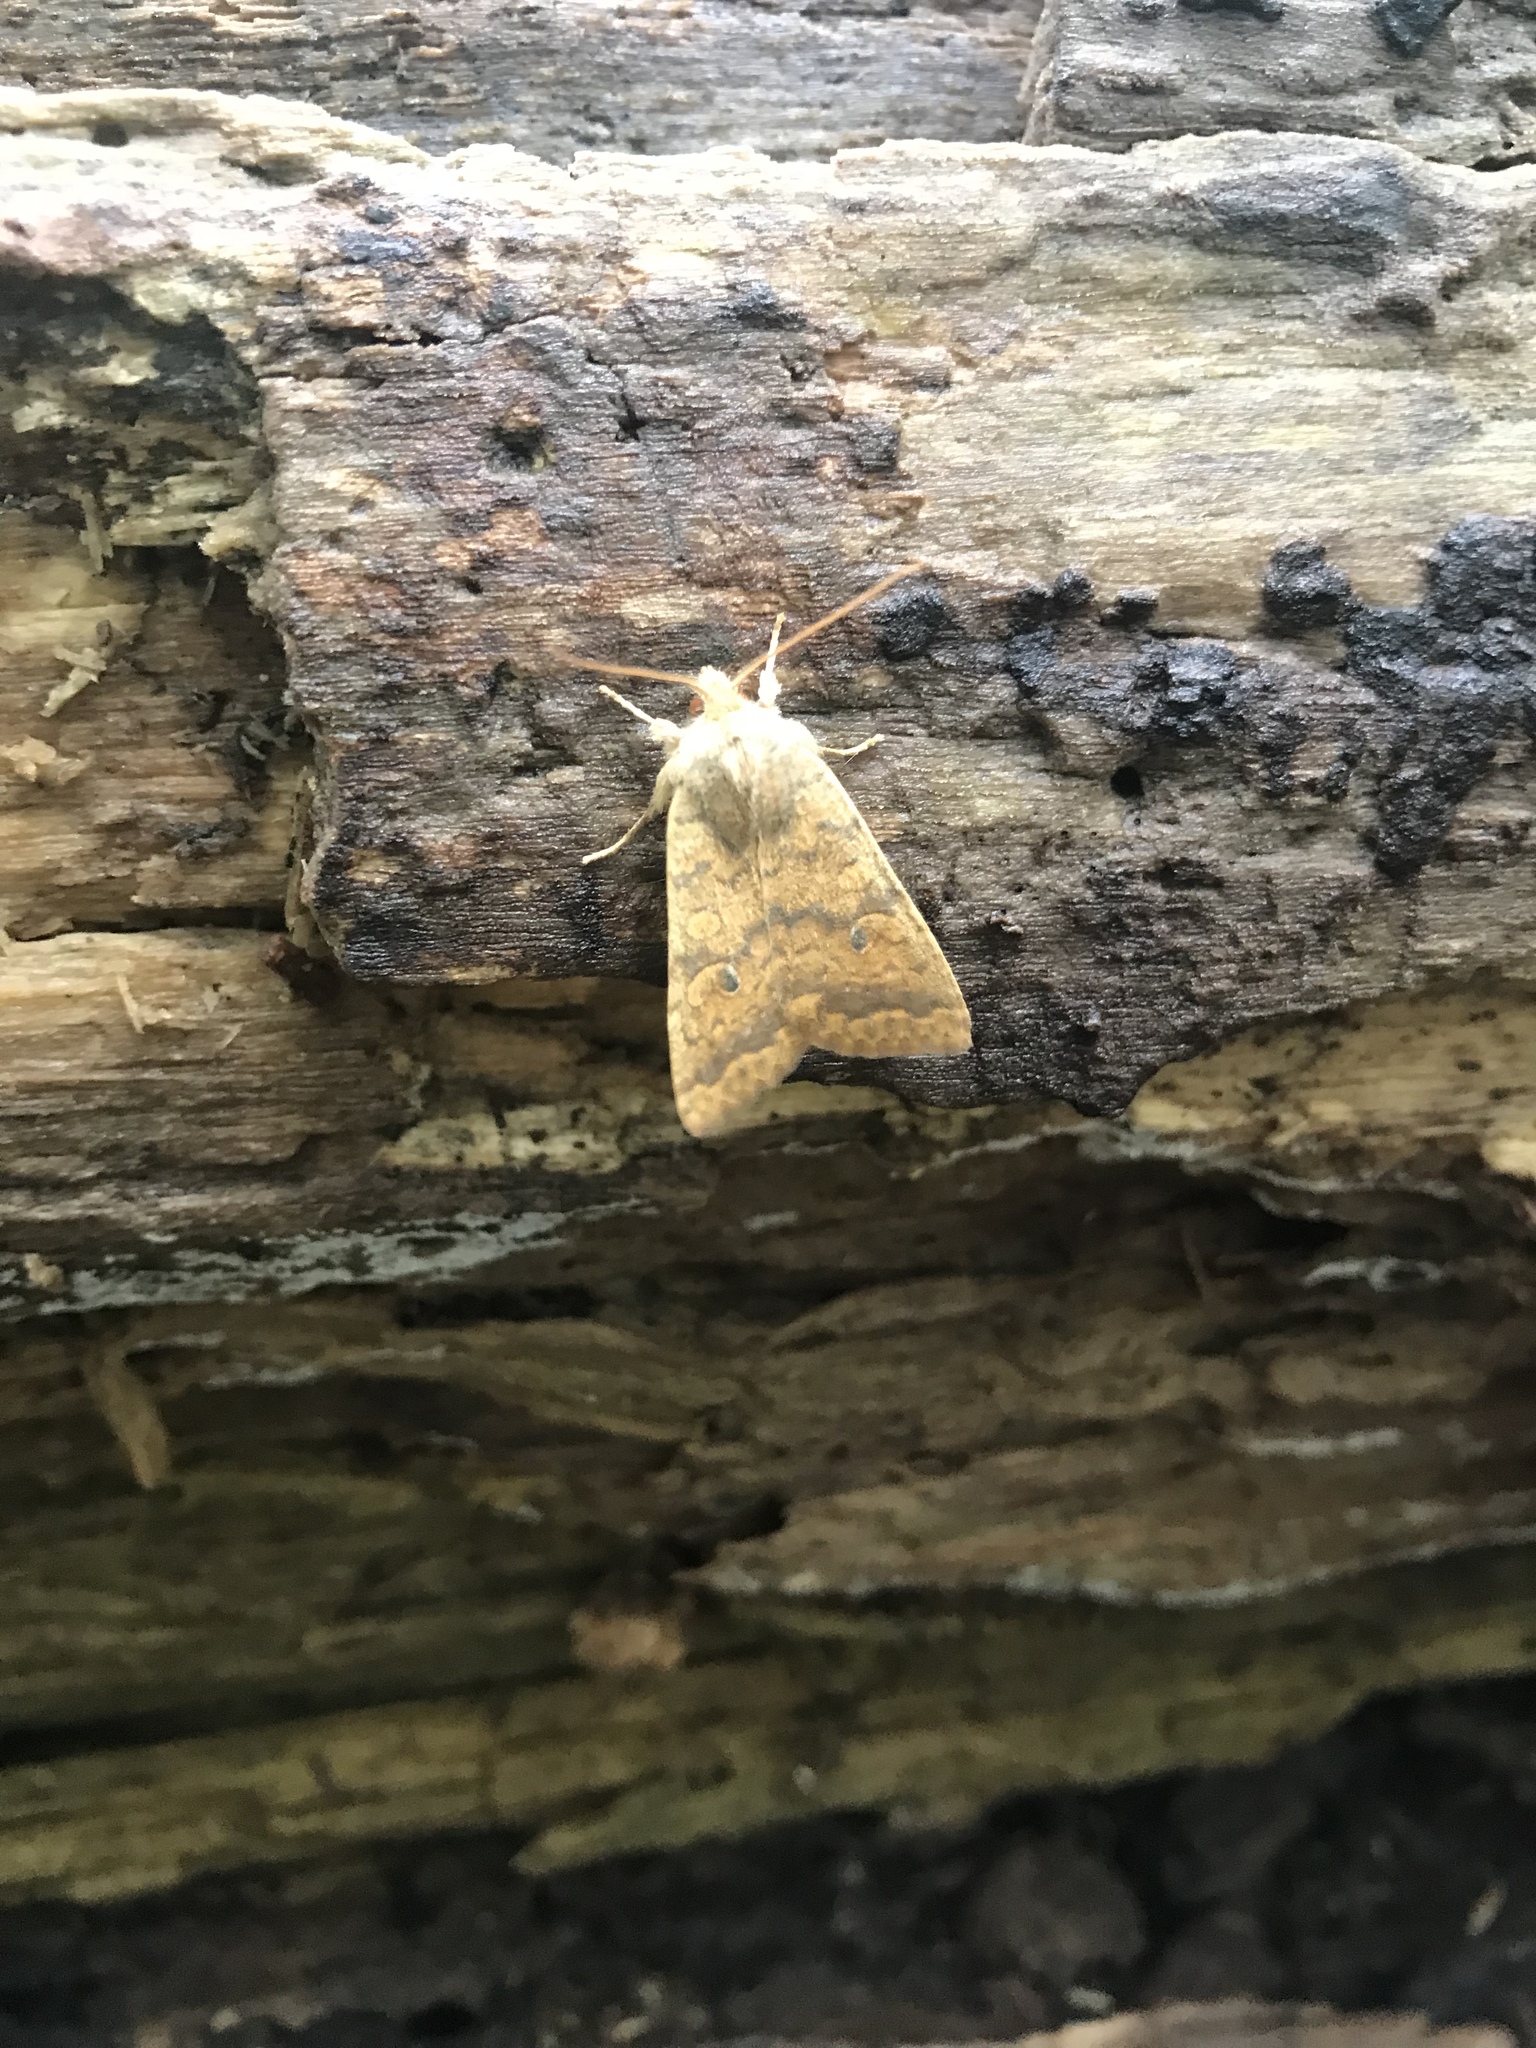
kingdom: Animalia
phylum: Arthropoda
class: Insecta
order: Lepidoptera
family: Noctuidae
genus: Agrochola
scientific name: Agrochola bicolorago
